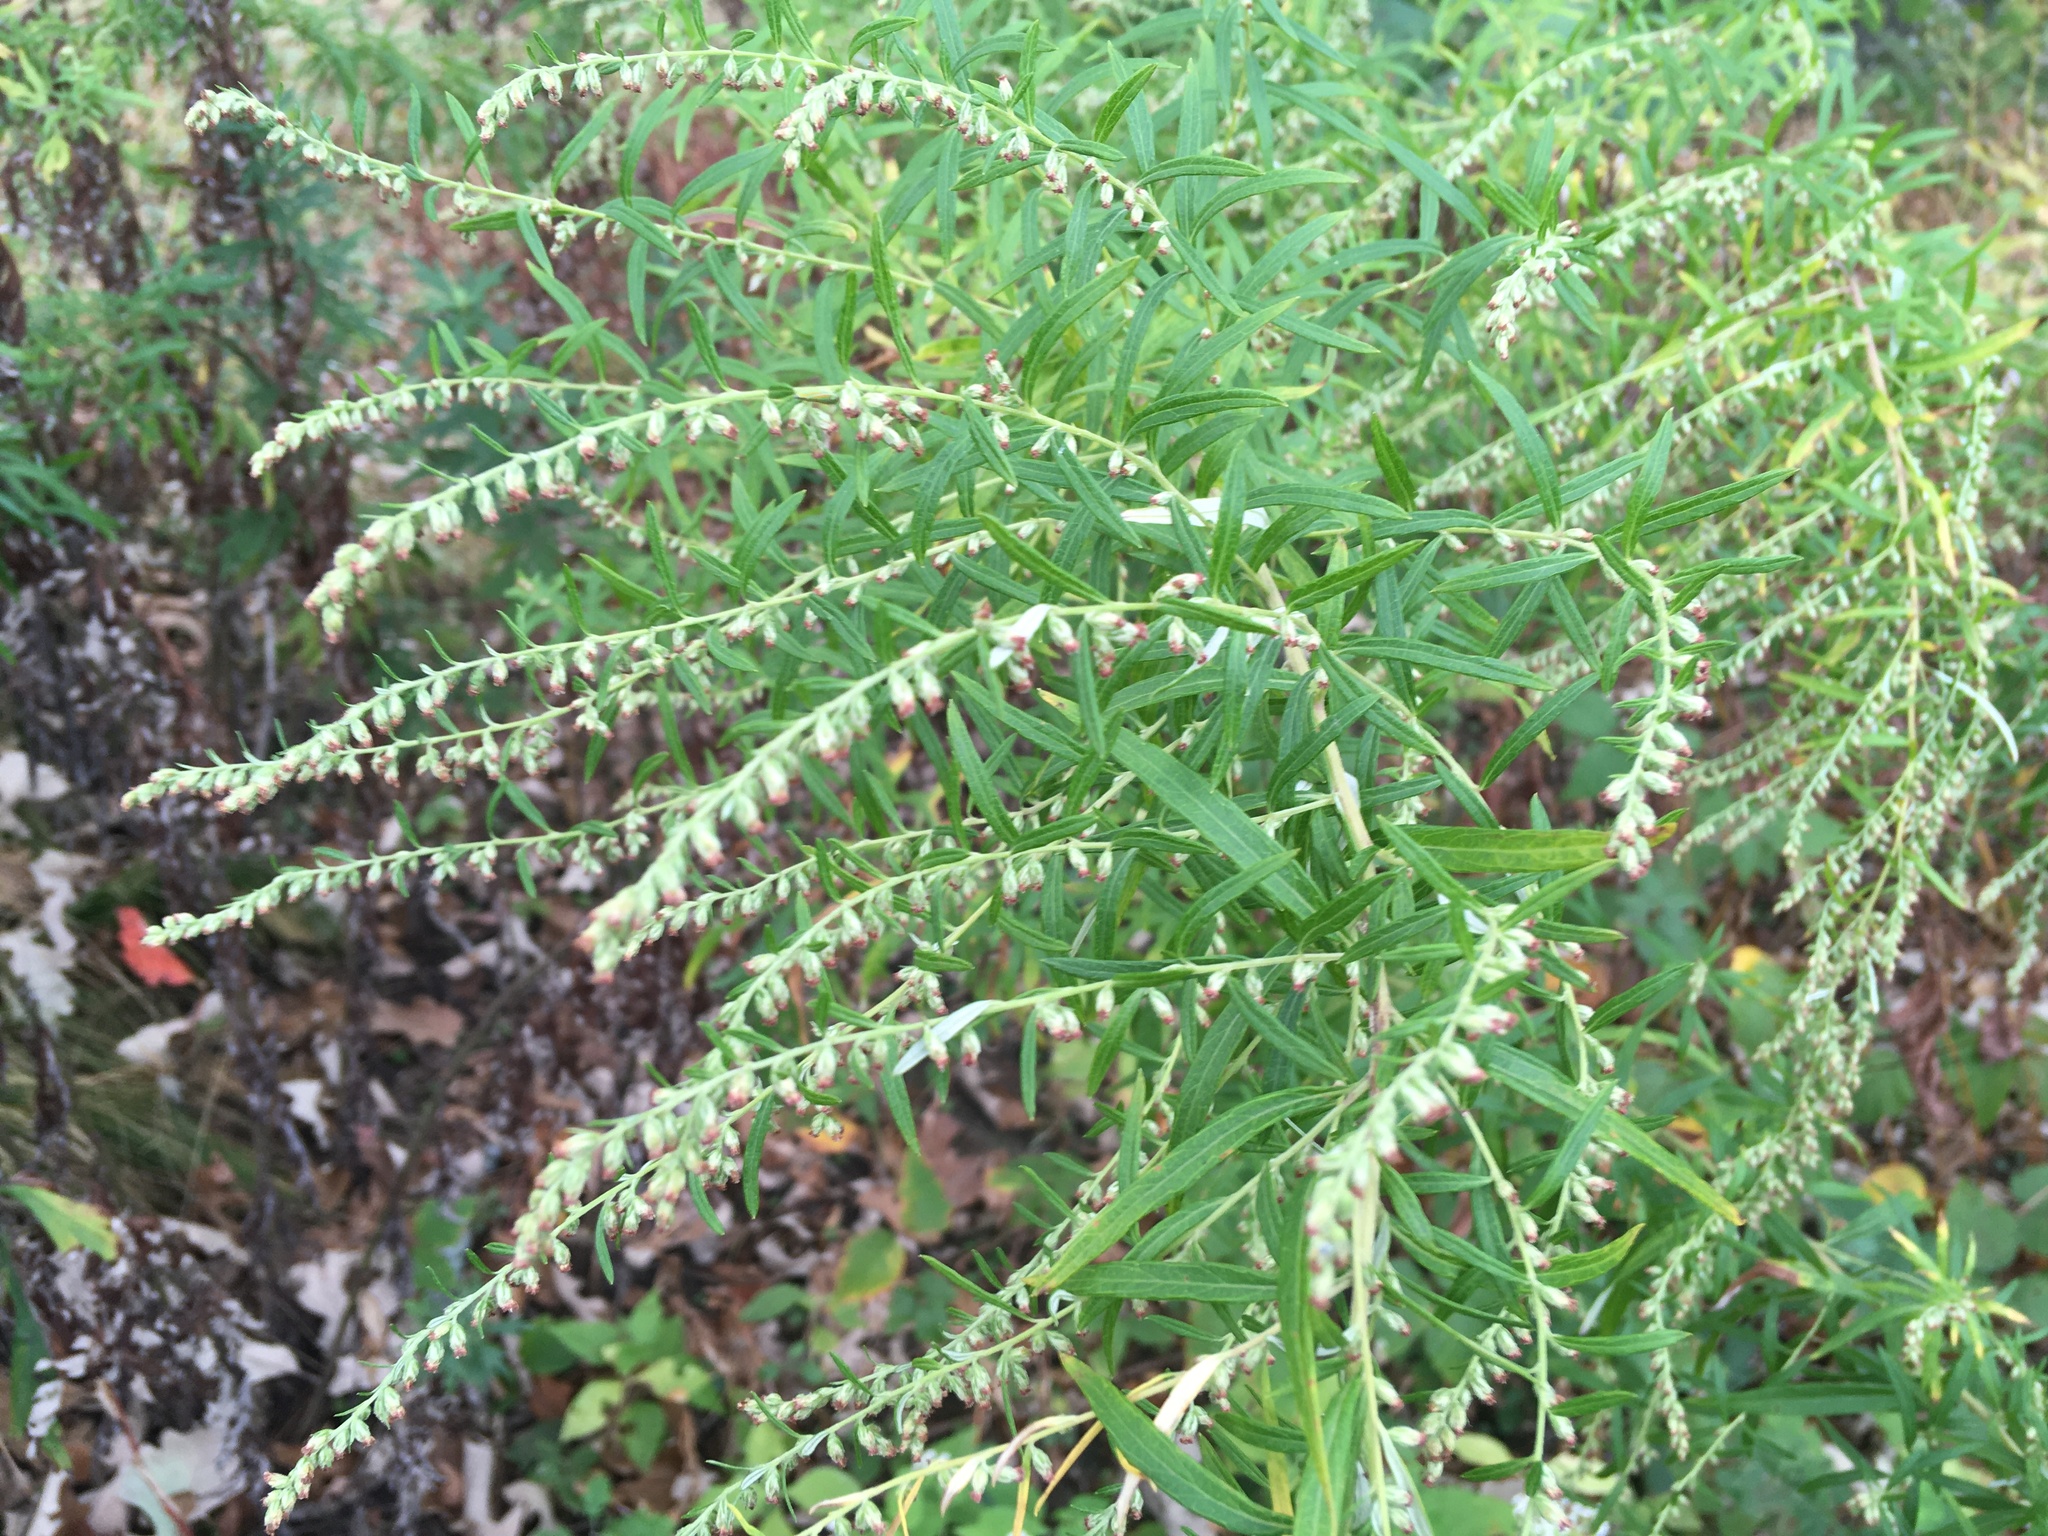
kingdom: Plantae
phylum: Tracheophyta
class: Magnoliopsida
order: Asterales
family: Asteraceae
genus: Artemisia
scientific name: Artemisia vulgaris
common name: Mugwort
